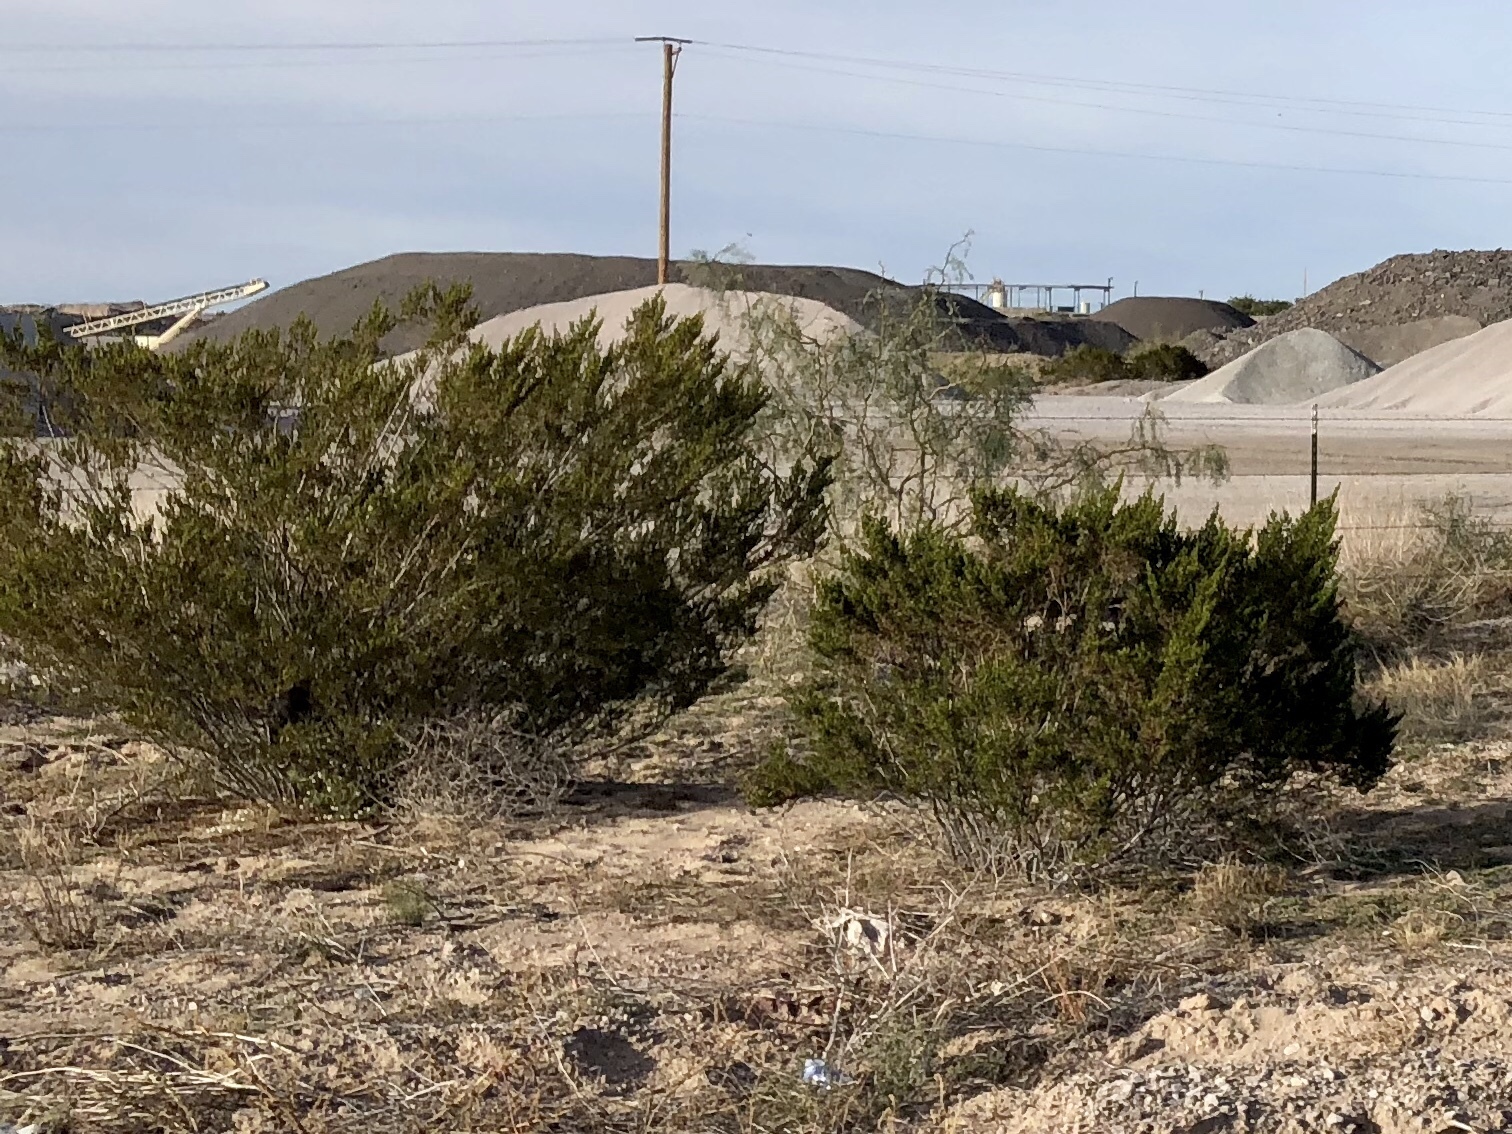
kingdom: Plantae
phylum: Tracheophyta
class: Magnoliopsida
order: Zygophyllales
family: Zygophyllaceae
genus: Larrea
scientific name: Larrea tridentata
